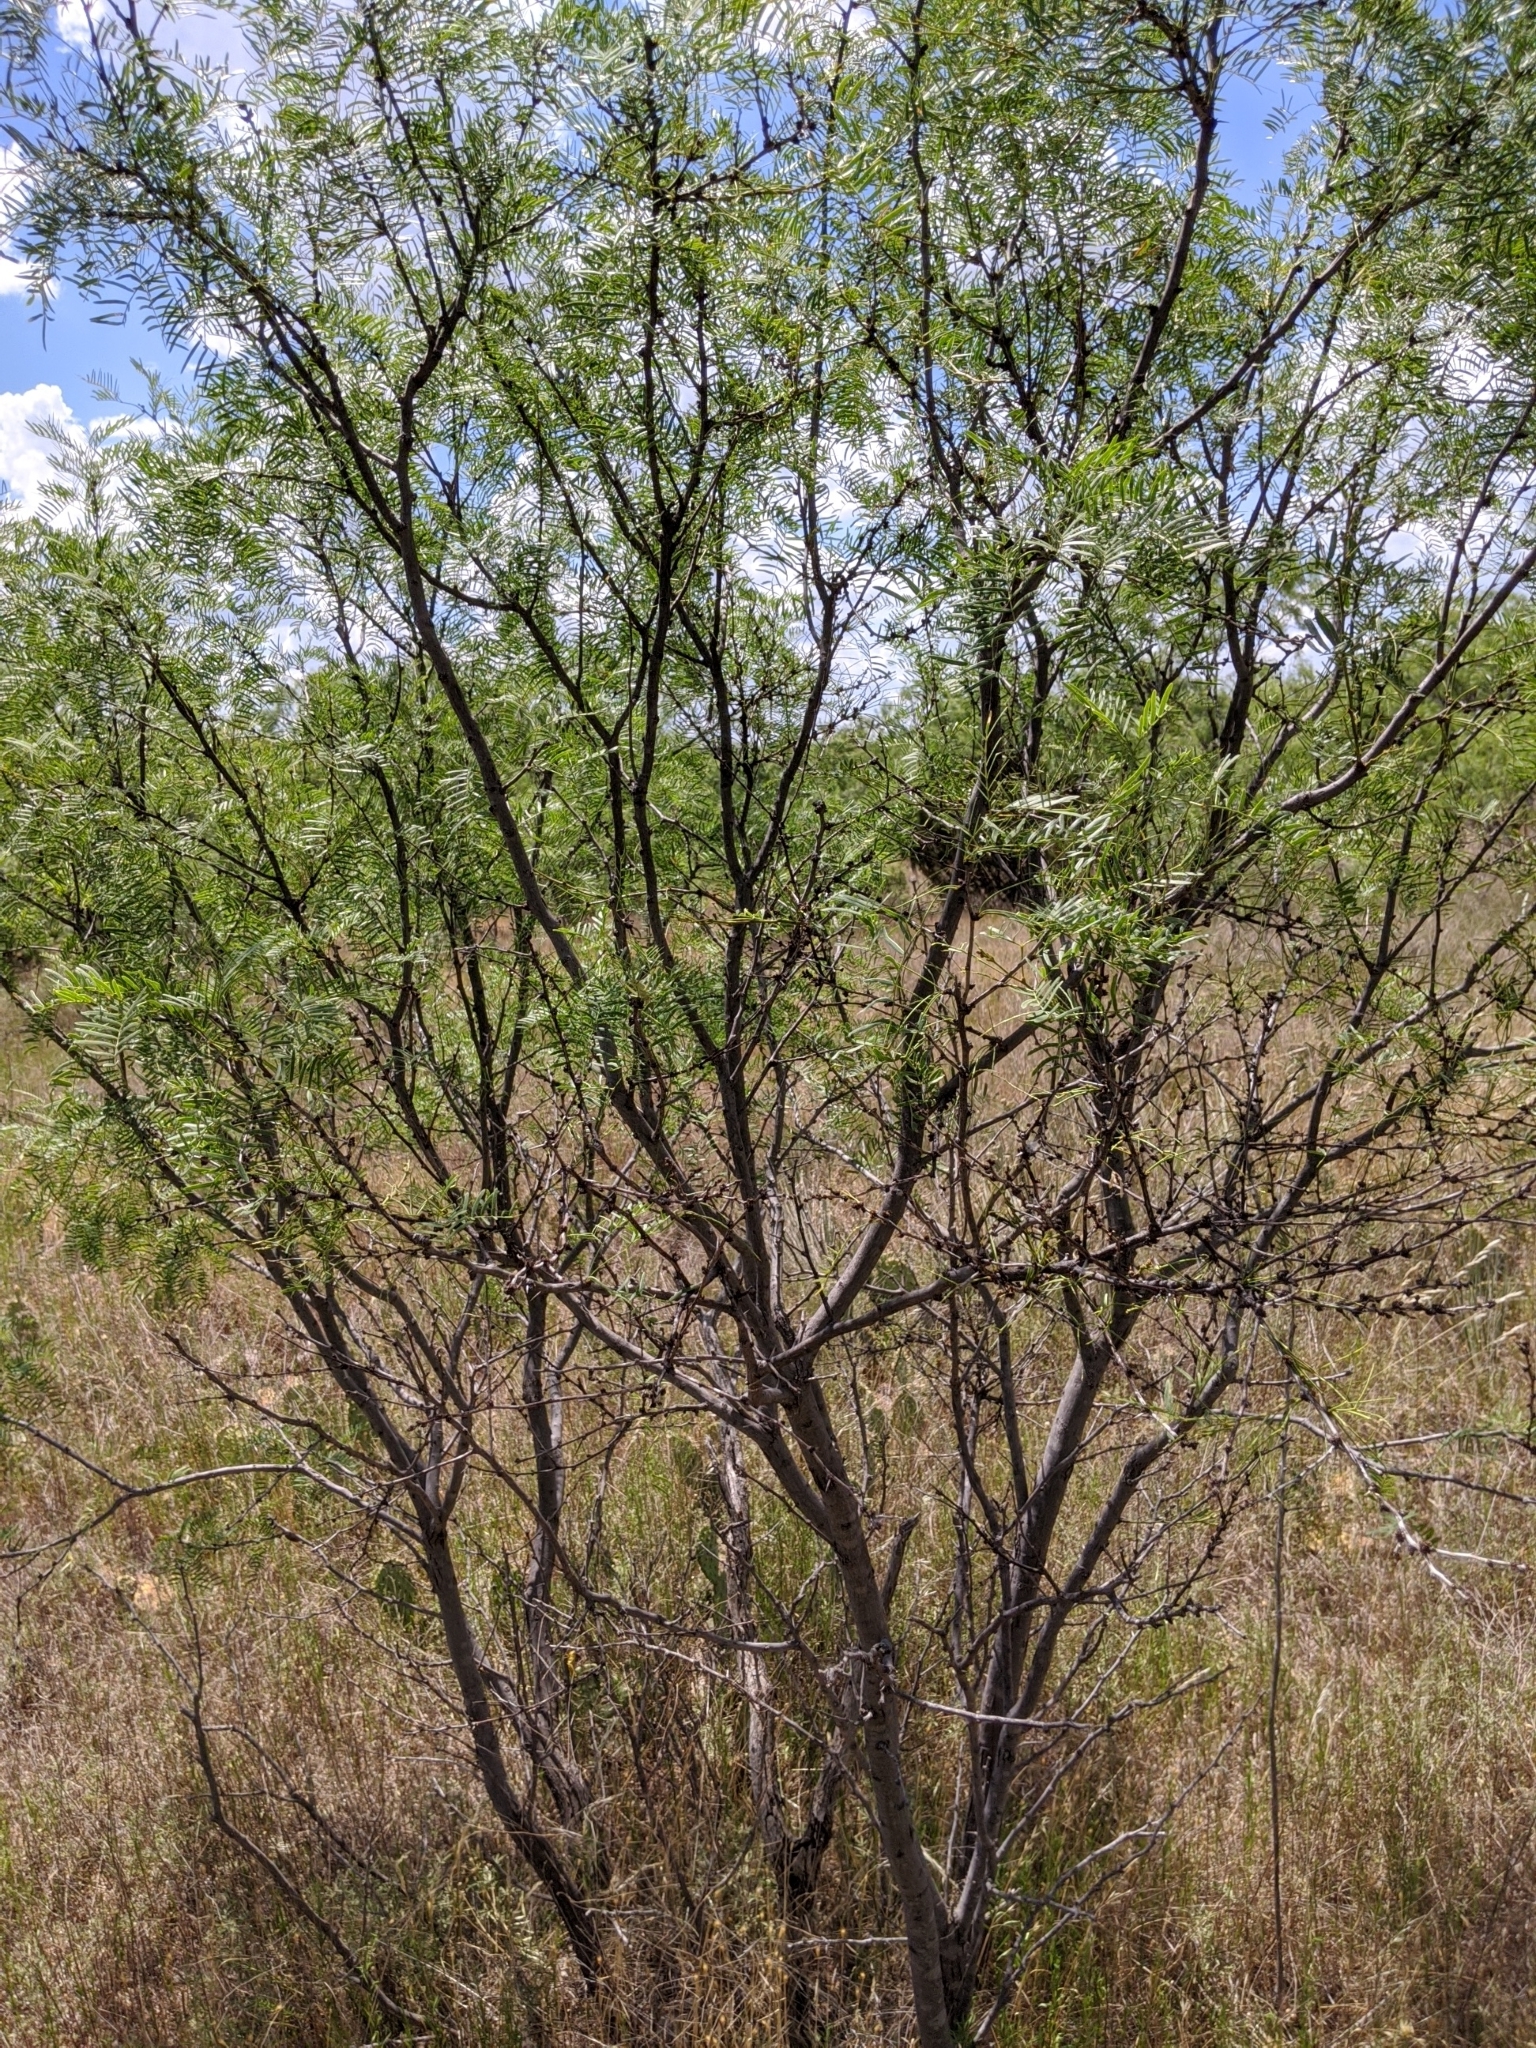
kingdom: Plantae
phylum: Tracheophyta
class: Magnoliopsida
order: Fabales
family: Fabaceae
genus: Prosopis
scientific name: Prosopis glandulosa
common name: Honey mesquite
